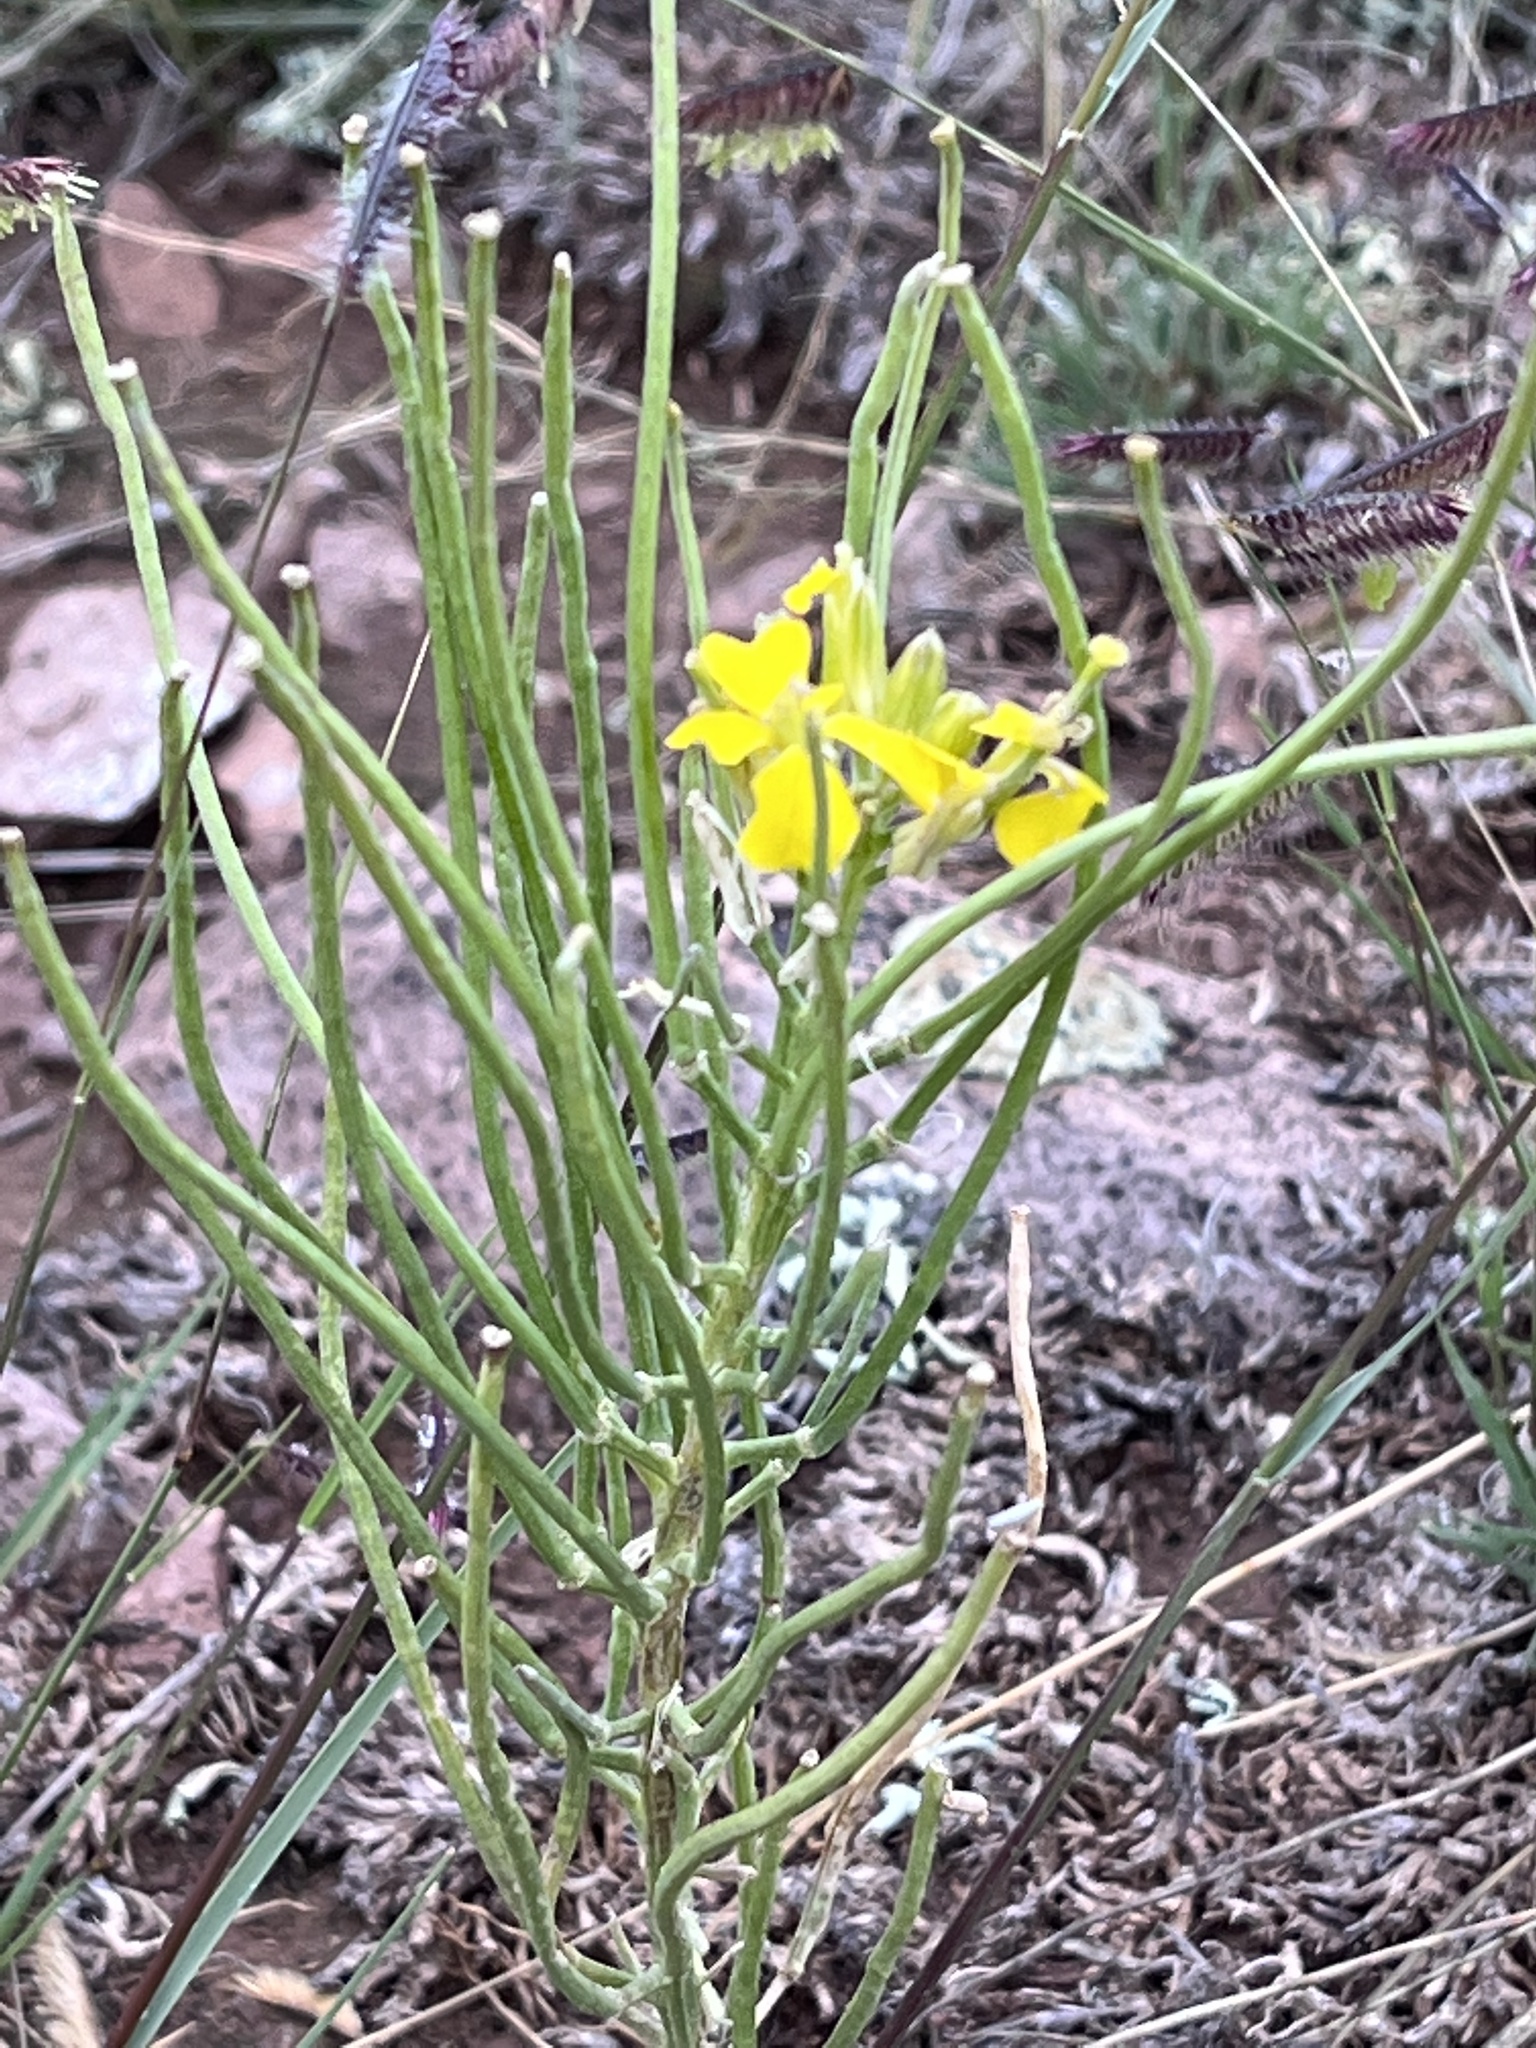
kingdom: Plantae
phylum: Tracheophyta
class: Magnoliopsida
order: Brassicales
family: Brassicaceae
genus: Erysimum
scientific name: Erysimum capitatum
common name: Western wallflower
